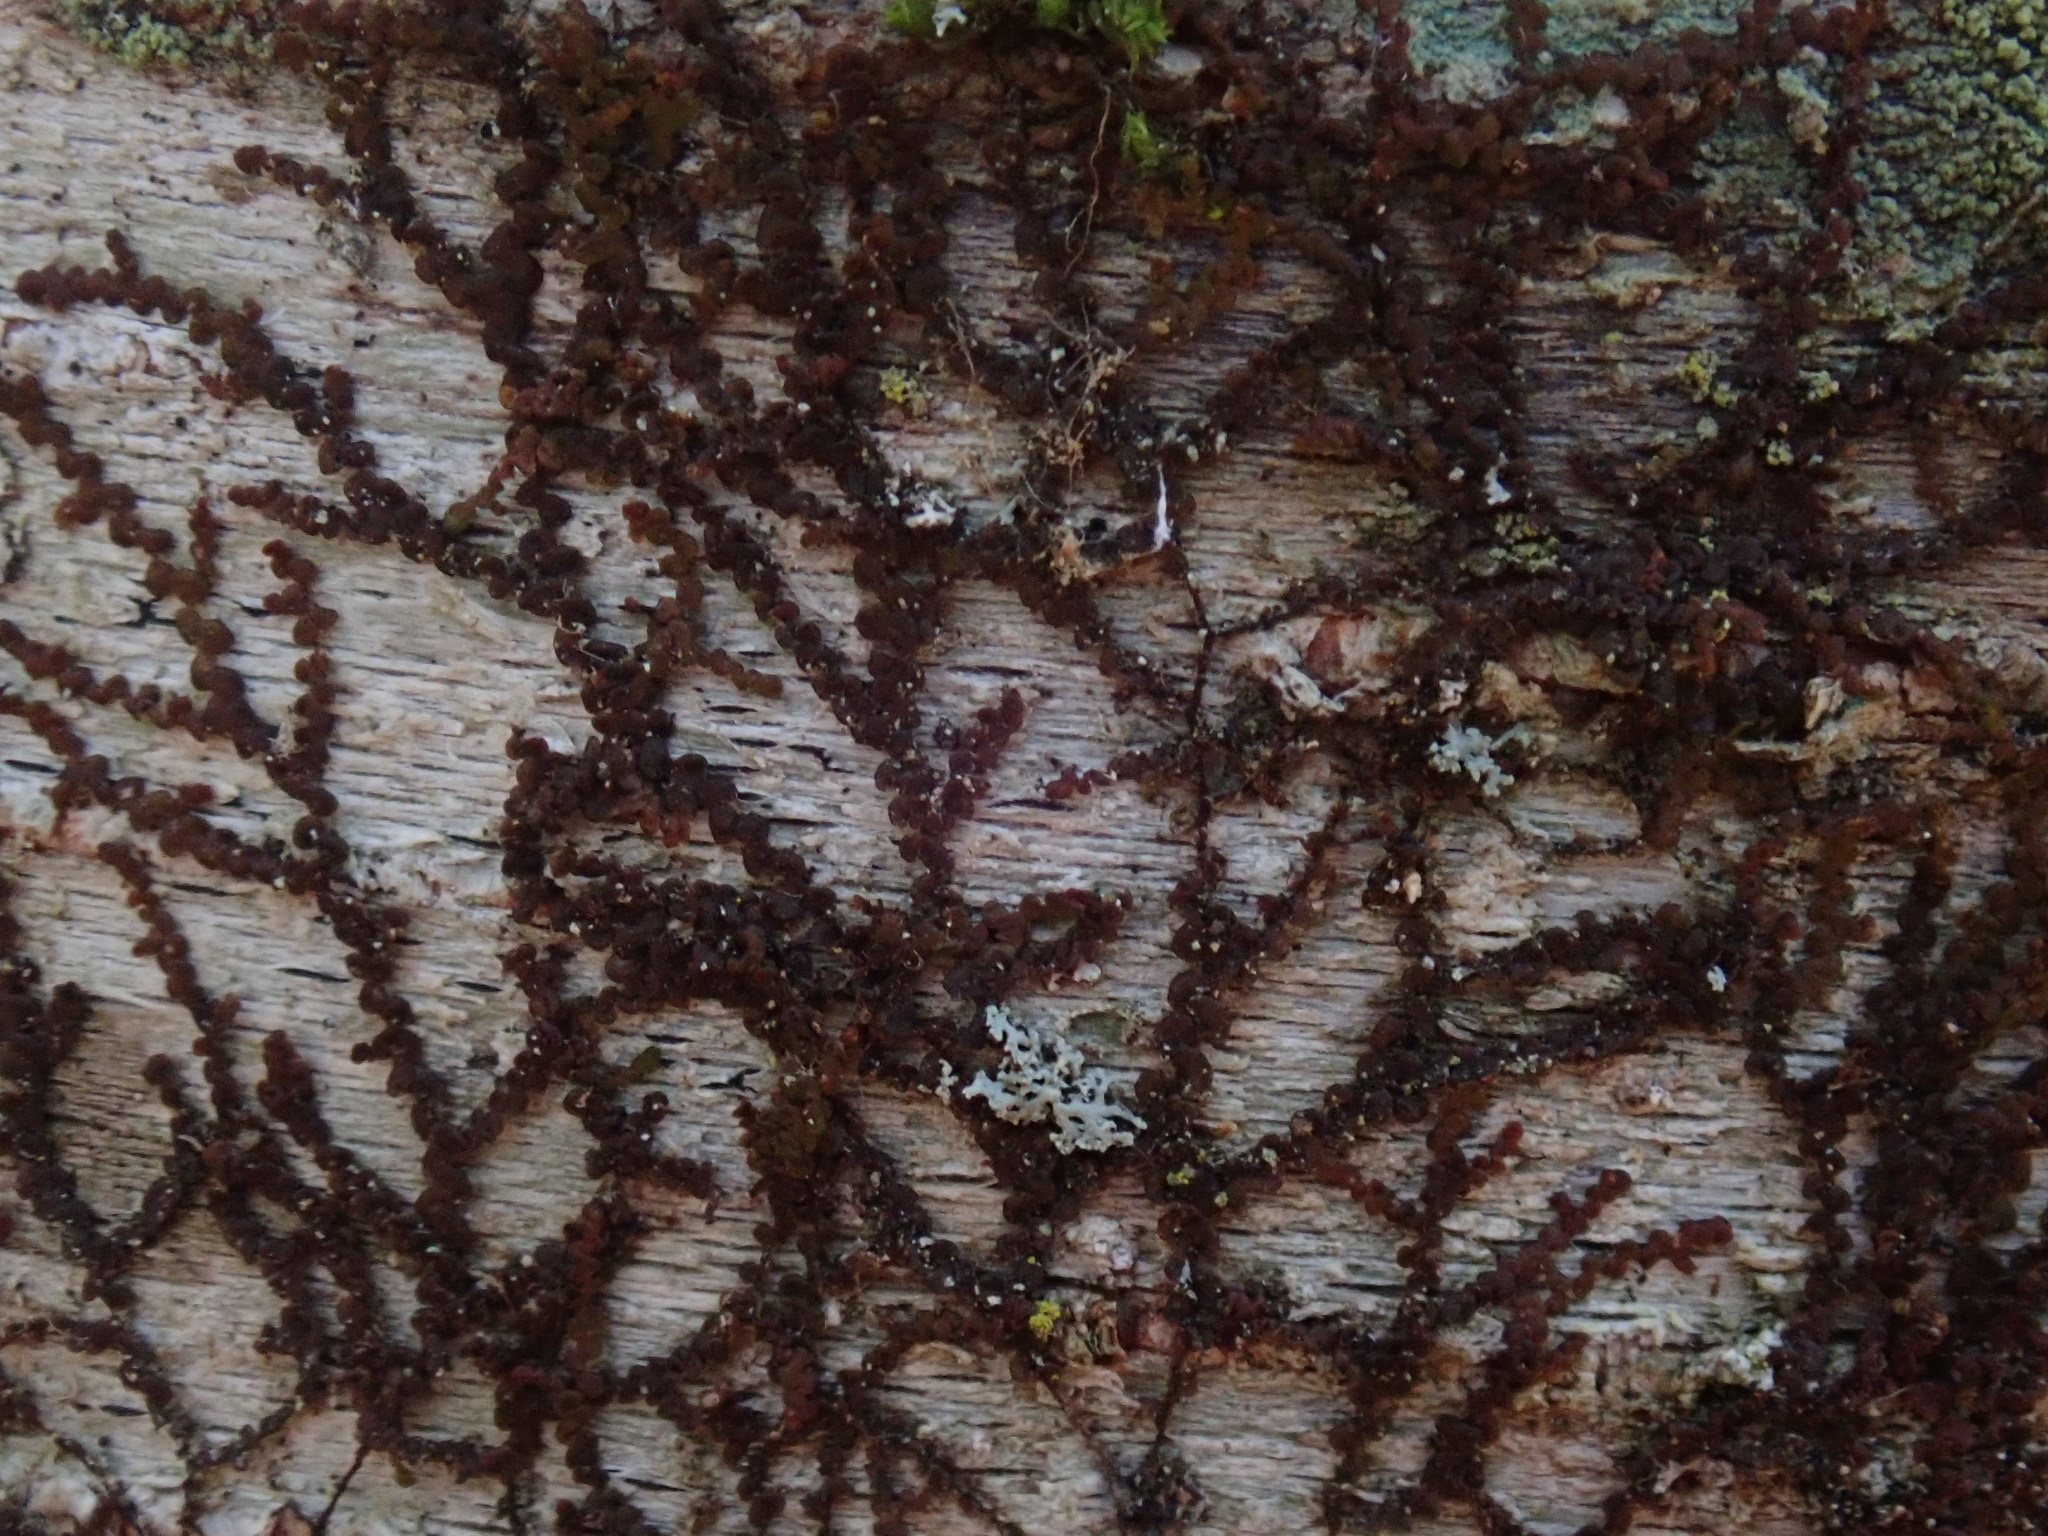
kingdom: Plantae
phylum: Marchantiophyta
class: Jungermanniopsida
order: Porellales
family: Frullaniaceae
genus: Frullania
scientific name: Frullania
